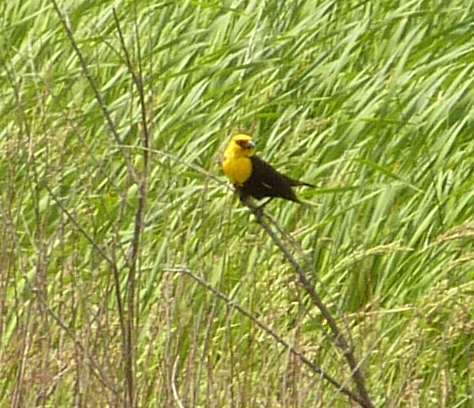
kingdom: Animalia
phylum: Chordata
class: Aves
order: Passeriformes
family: Icteridae
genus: Xanthocephalus
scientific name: Xanthocephalus xanthocephalus
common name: Yellow-headed blackbird
